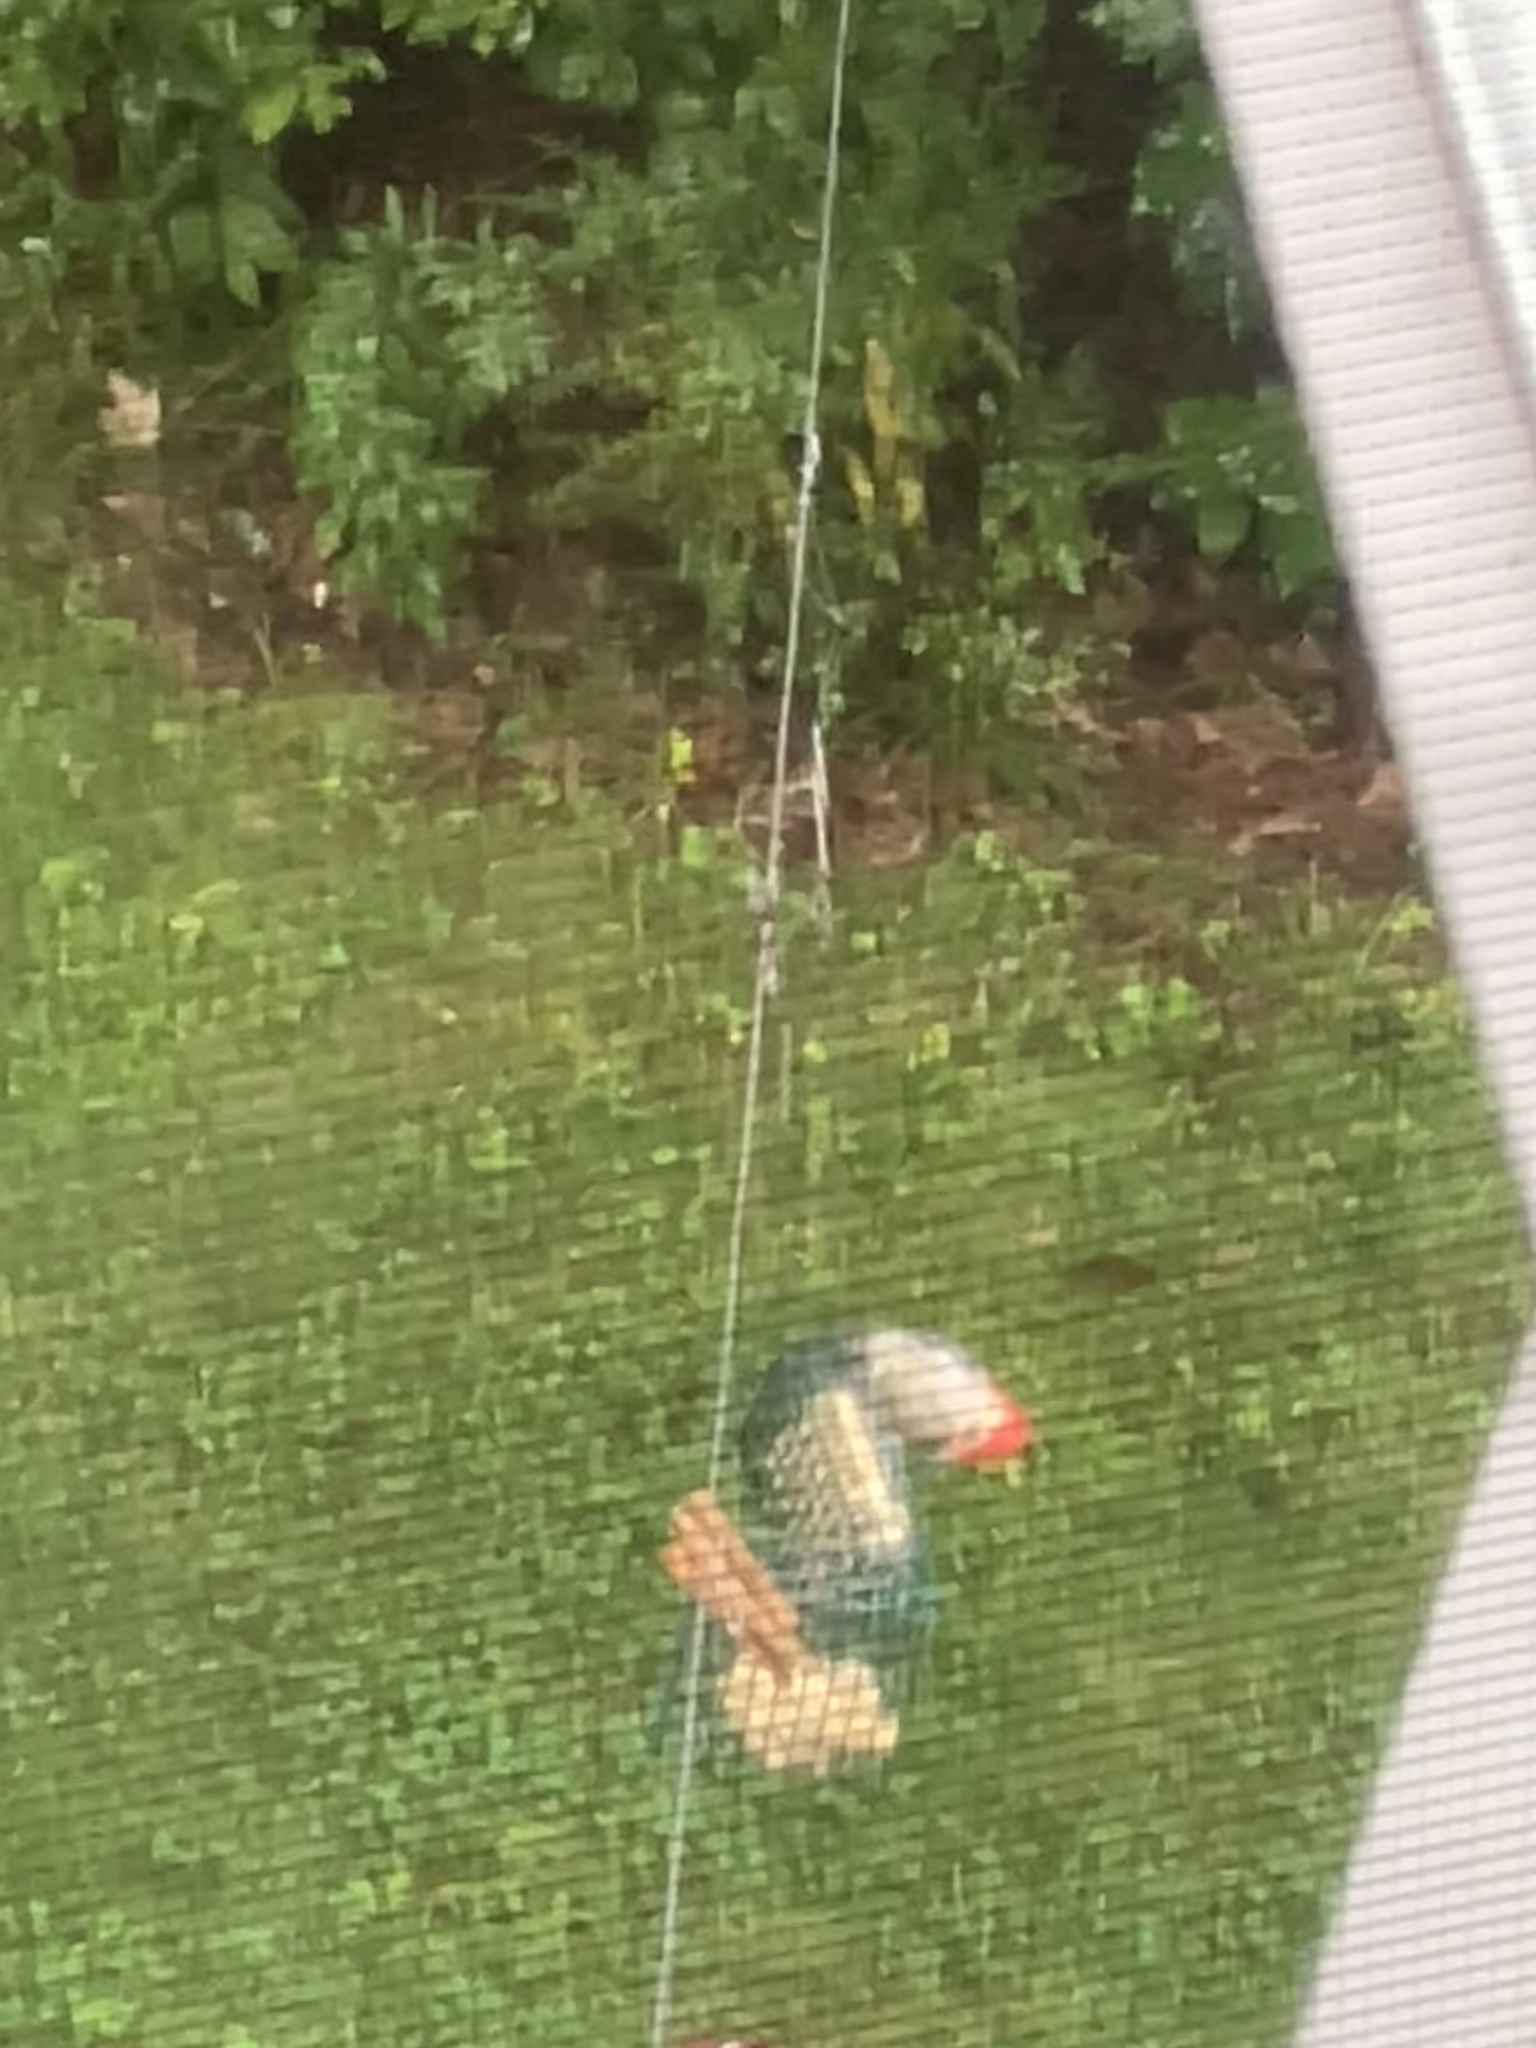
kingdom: Animalia
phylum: Chordata
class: Aves
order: Piciformes
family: Picidae
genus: Melanerpes
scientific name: Melanerpes carolinus
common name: Red-bellied woodpecker
